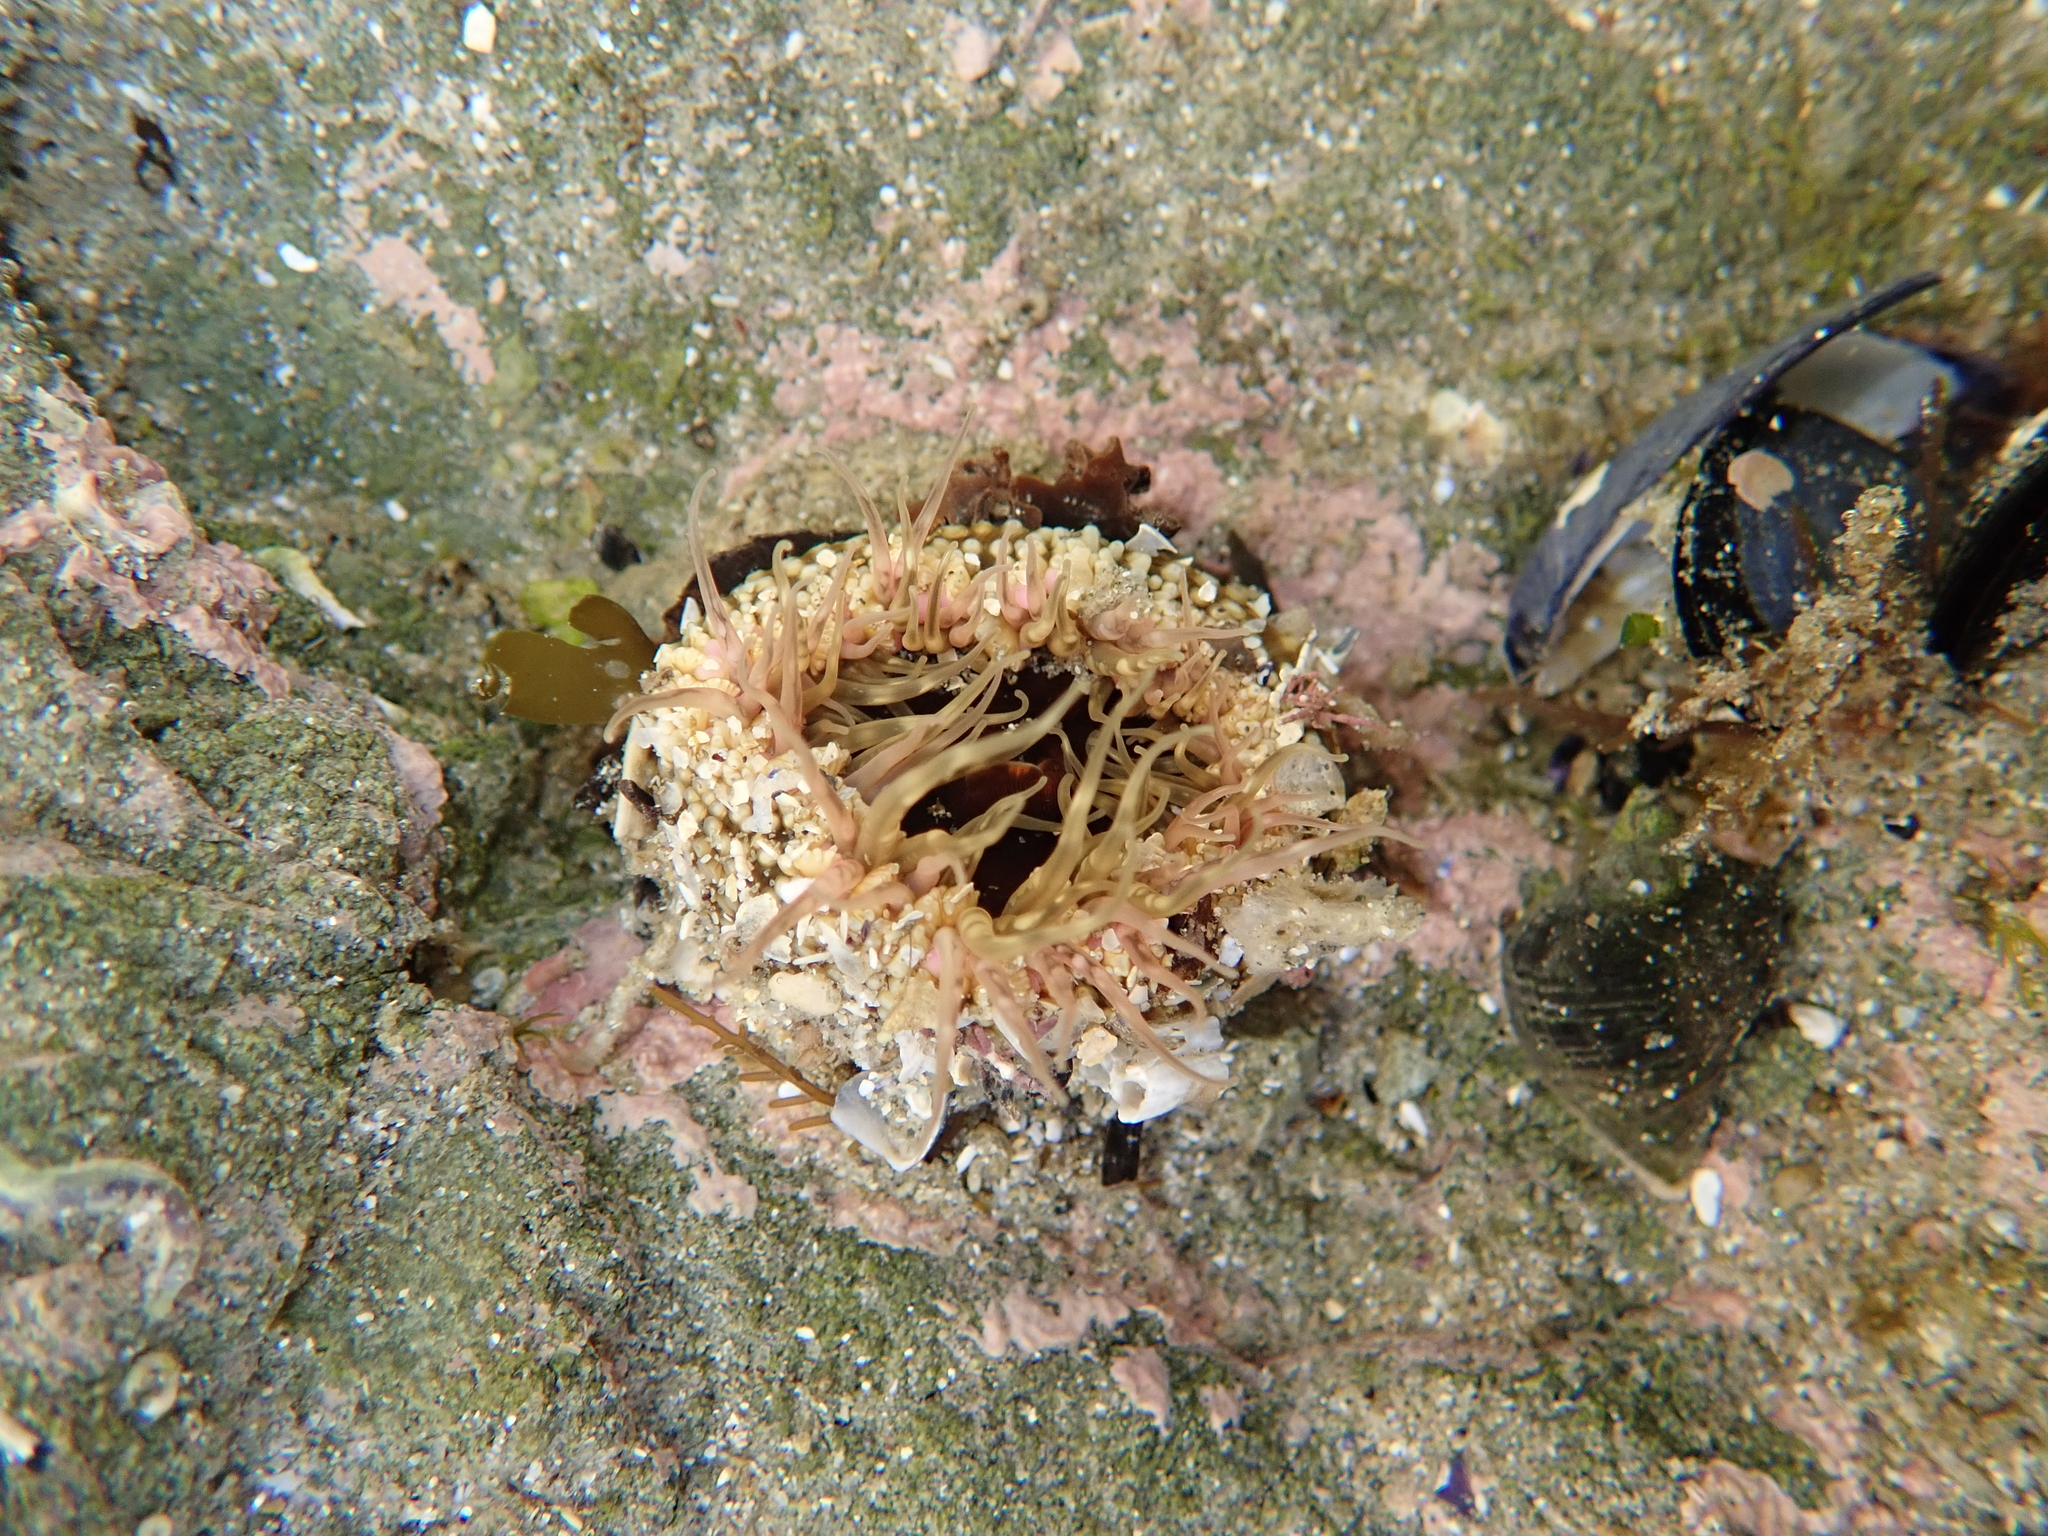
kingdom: Animalia
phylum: Cnidaria
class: Anthozoa
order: Actiniaria
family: Actiniidae
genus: Oulactis
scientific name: Oulactis muscosa
